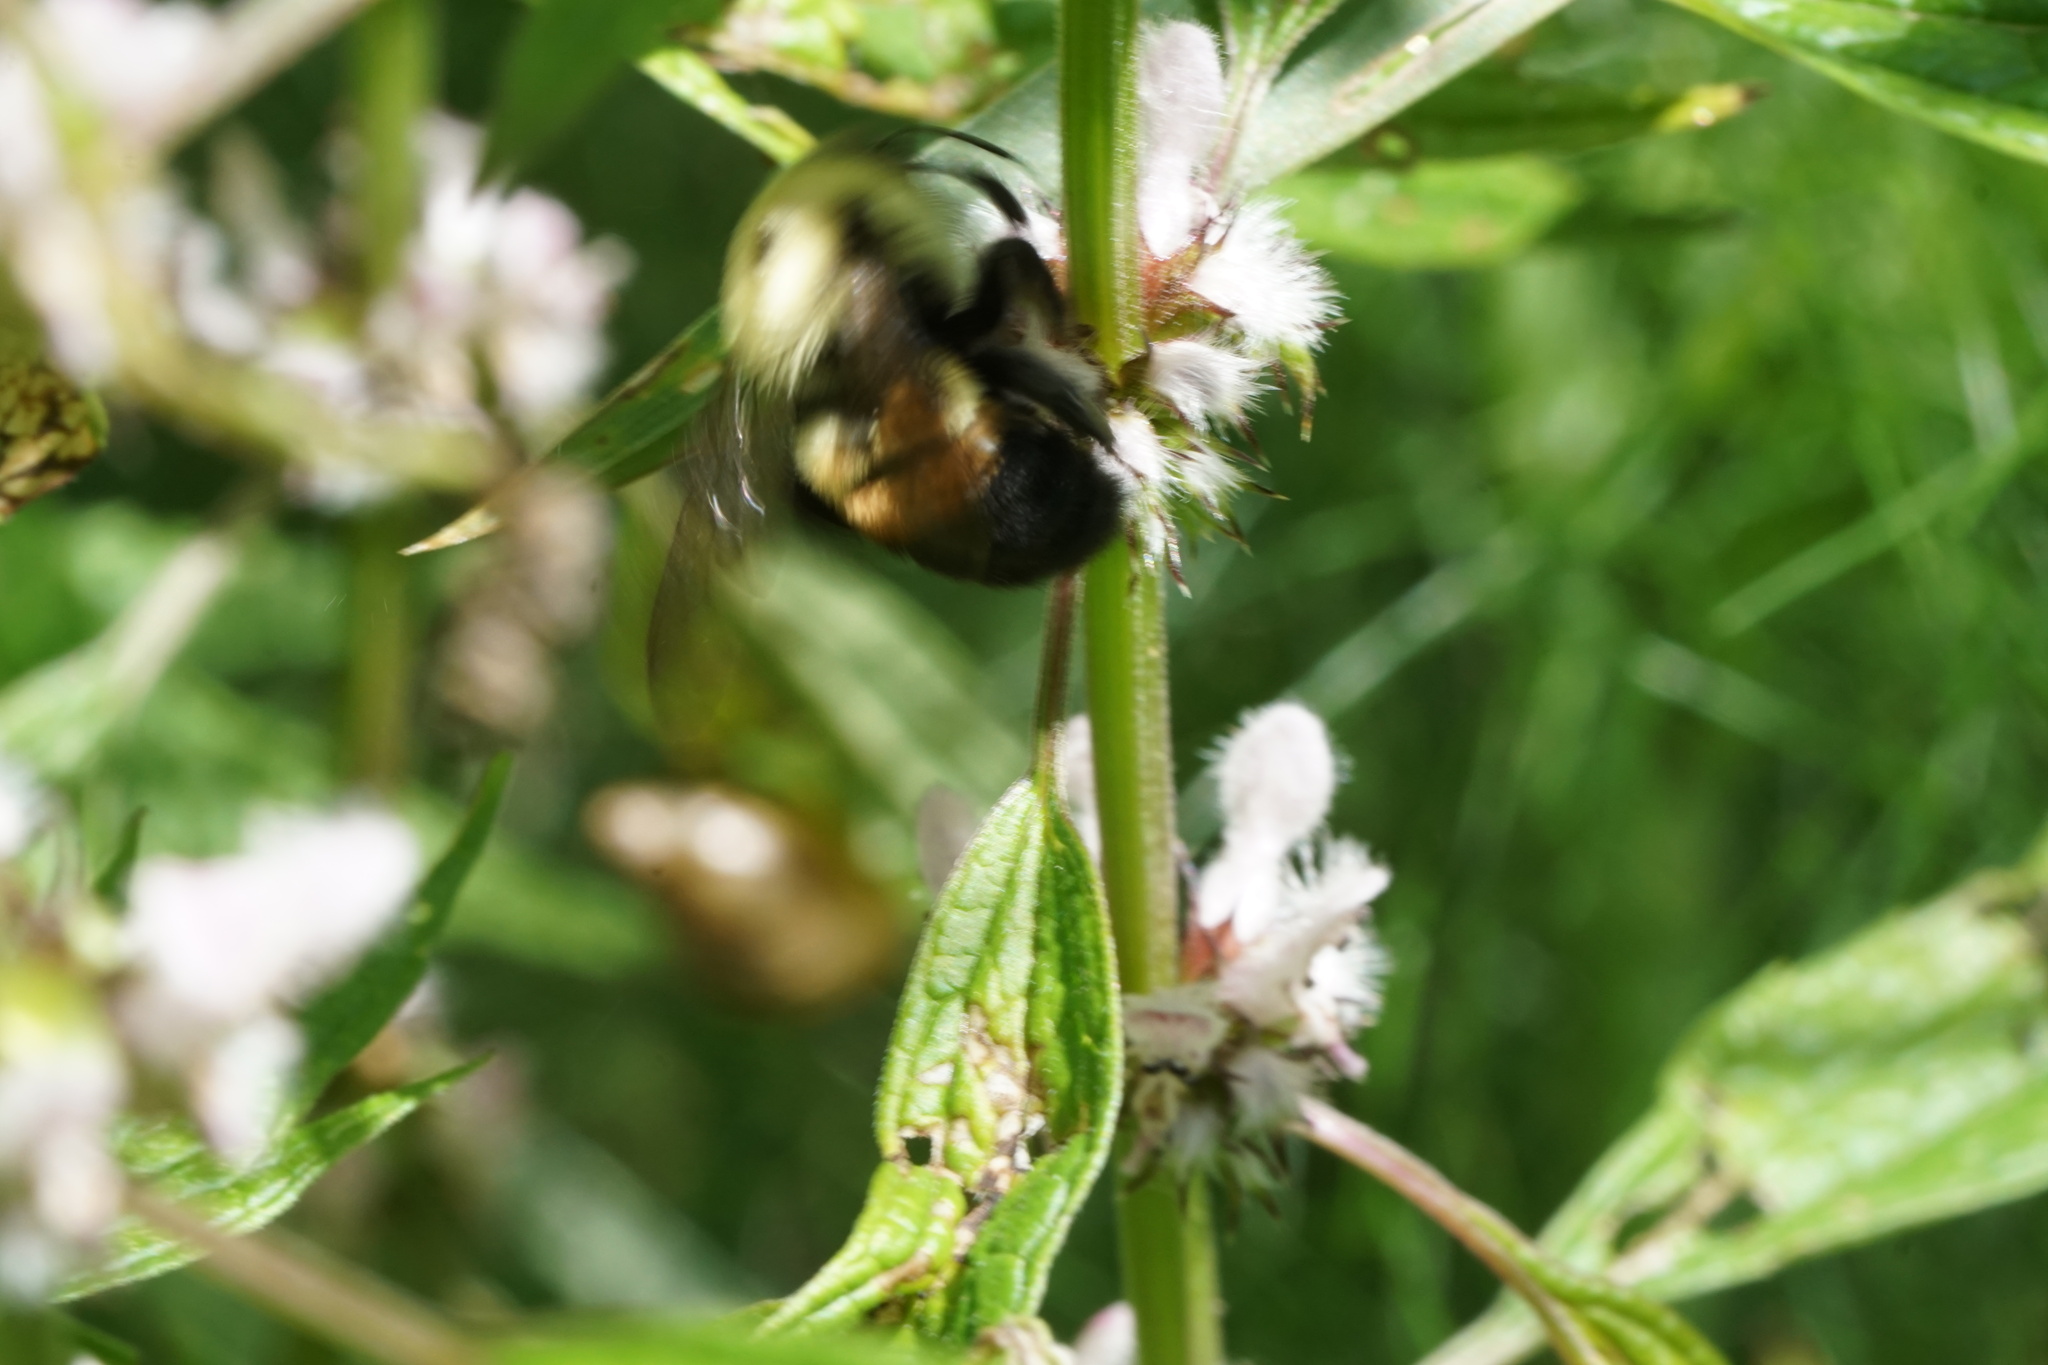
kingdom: Animalia
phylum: Arthropoda
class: Insecta
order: Hymenoptera
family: Apidae
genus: Bombus
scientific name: Bombus griseocollis
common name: Brown-belted bumble bee
